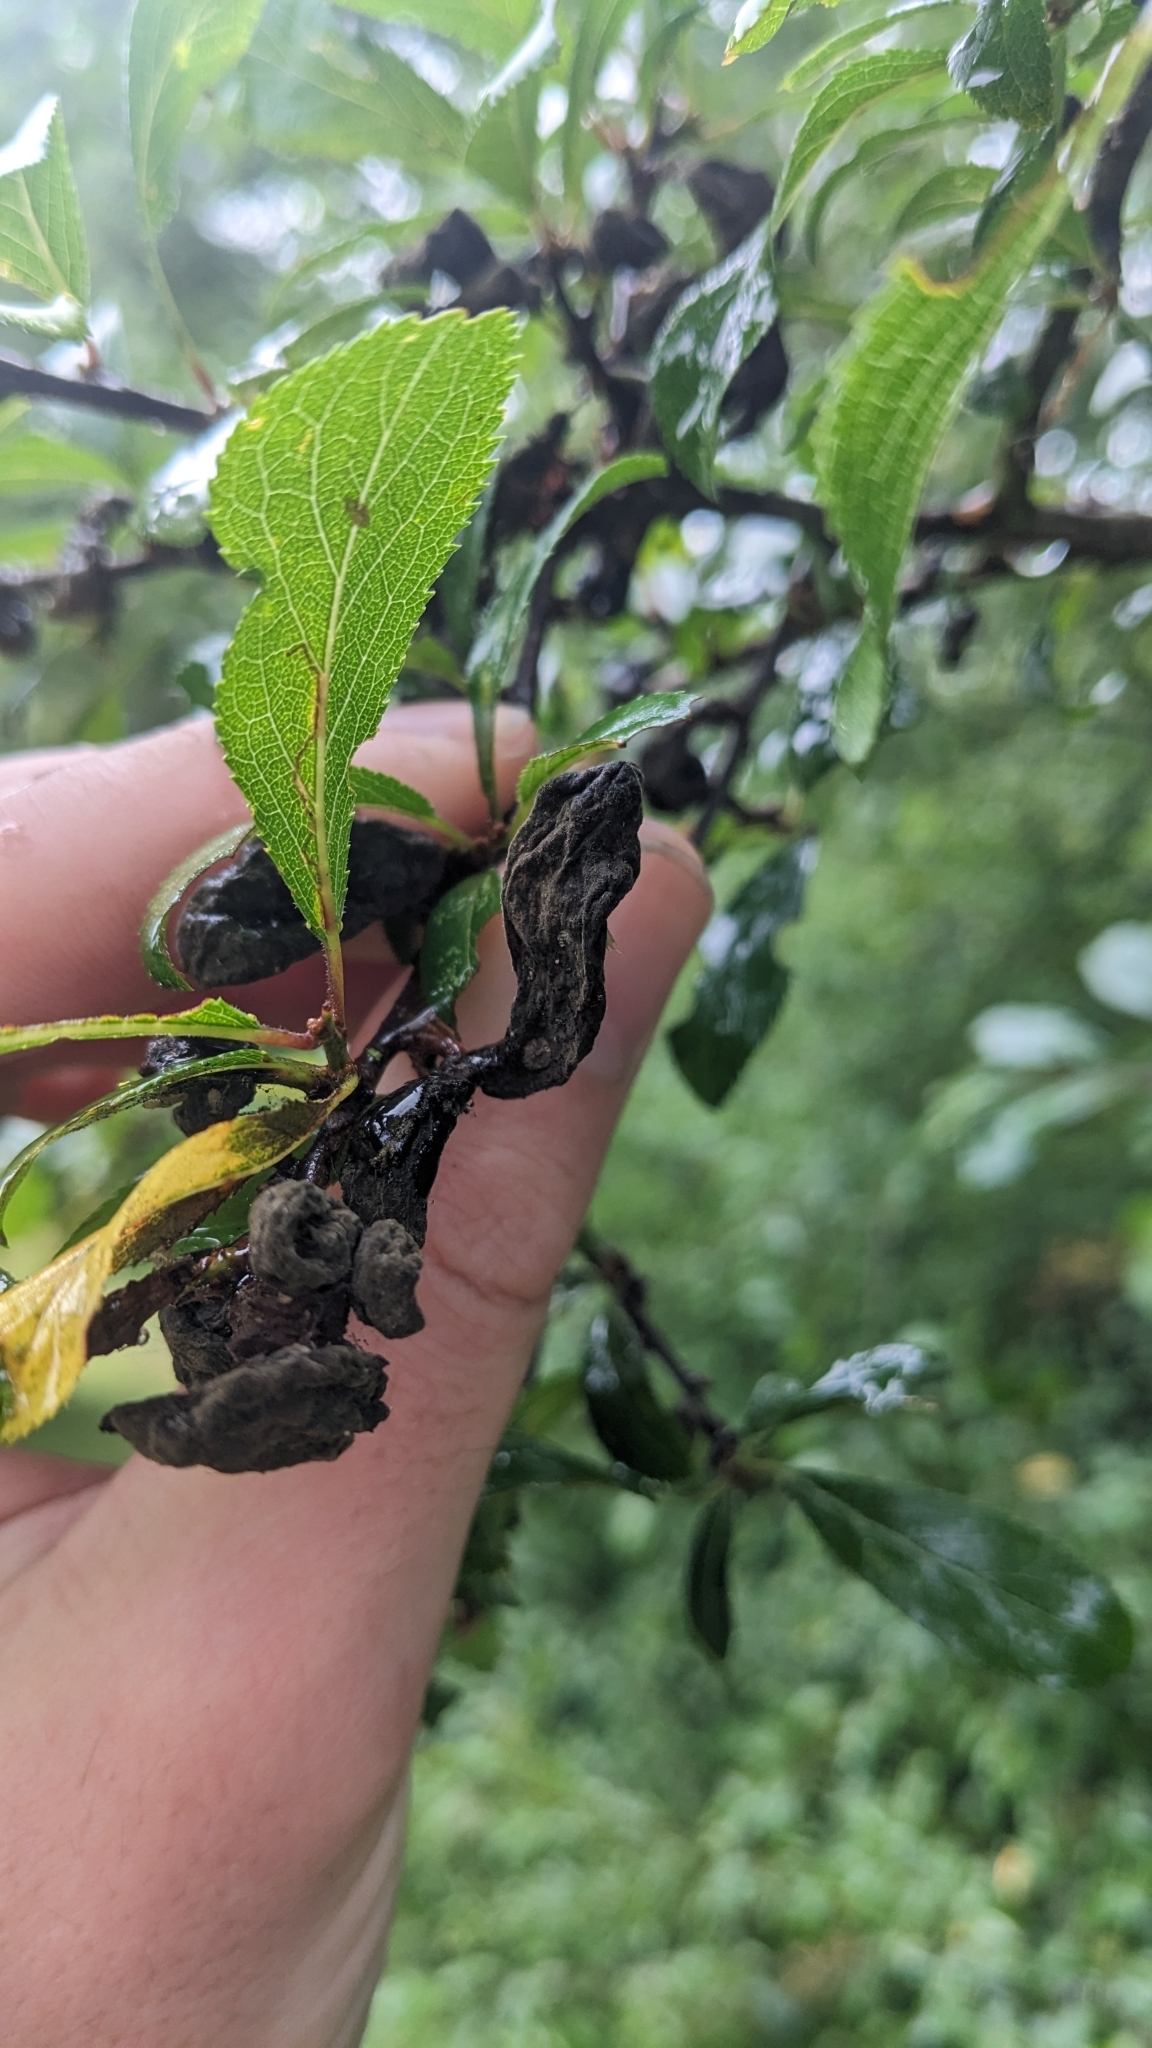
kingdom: Fungi
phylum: Ascomycota
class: Taphrinomycetes
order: Taphrinales
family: Taphrinaceae
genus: Taphrina
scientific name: Taphrina pruni
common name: Pocket plum
